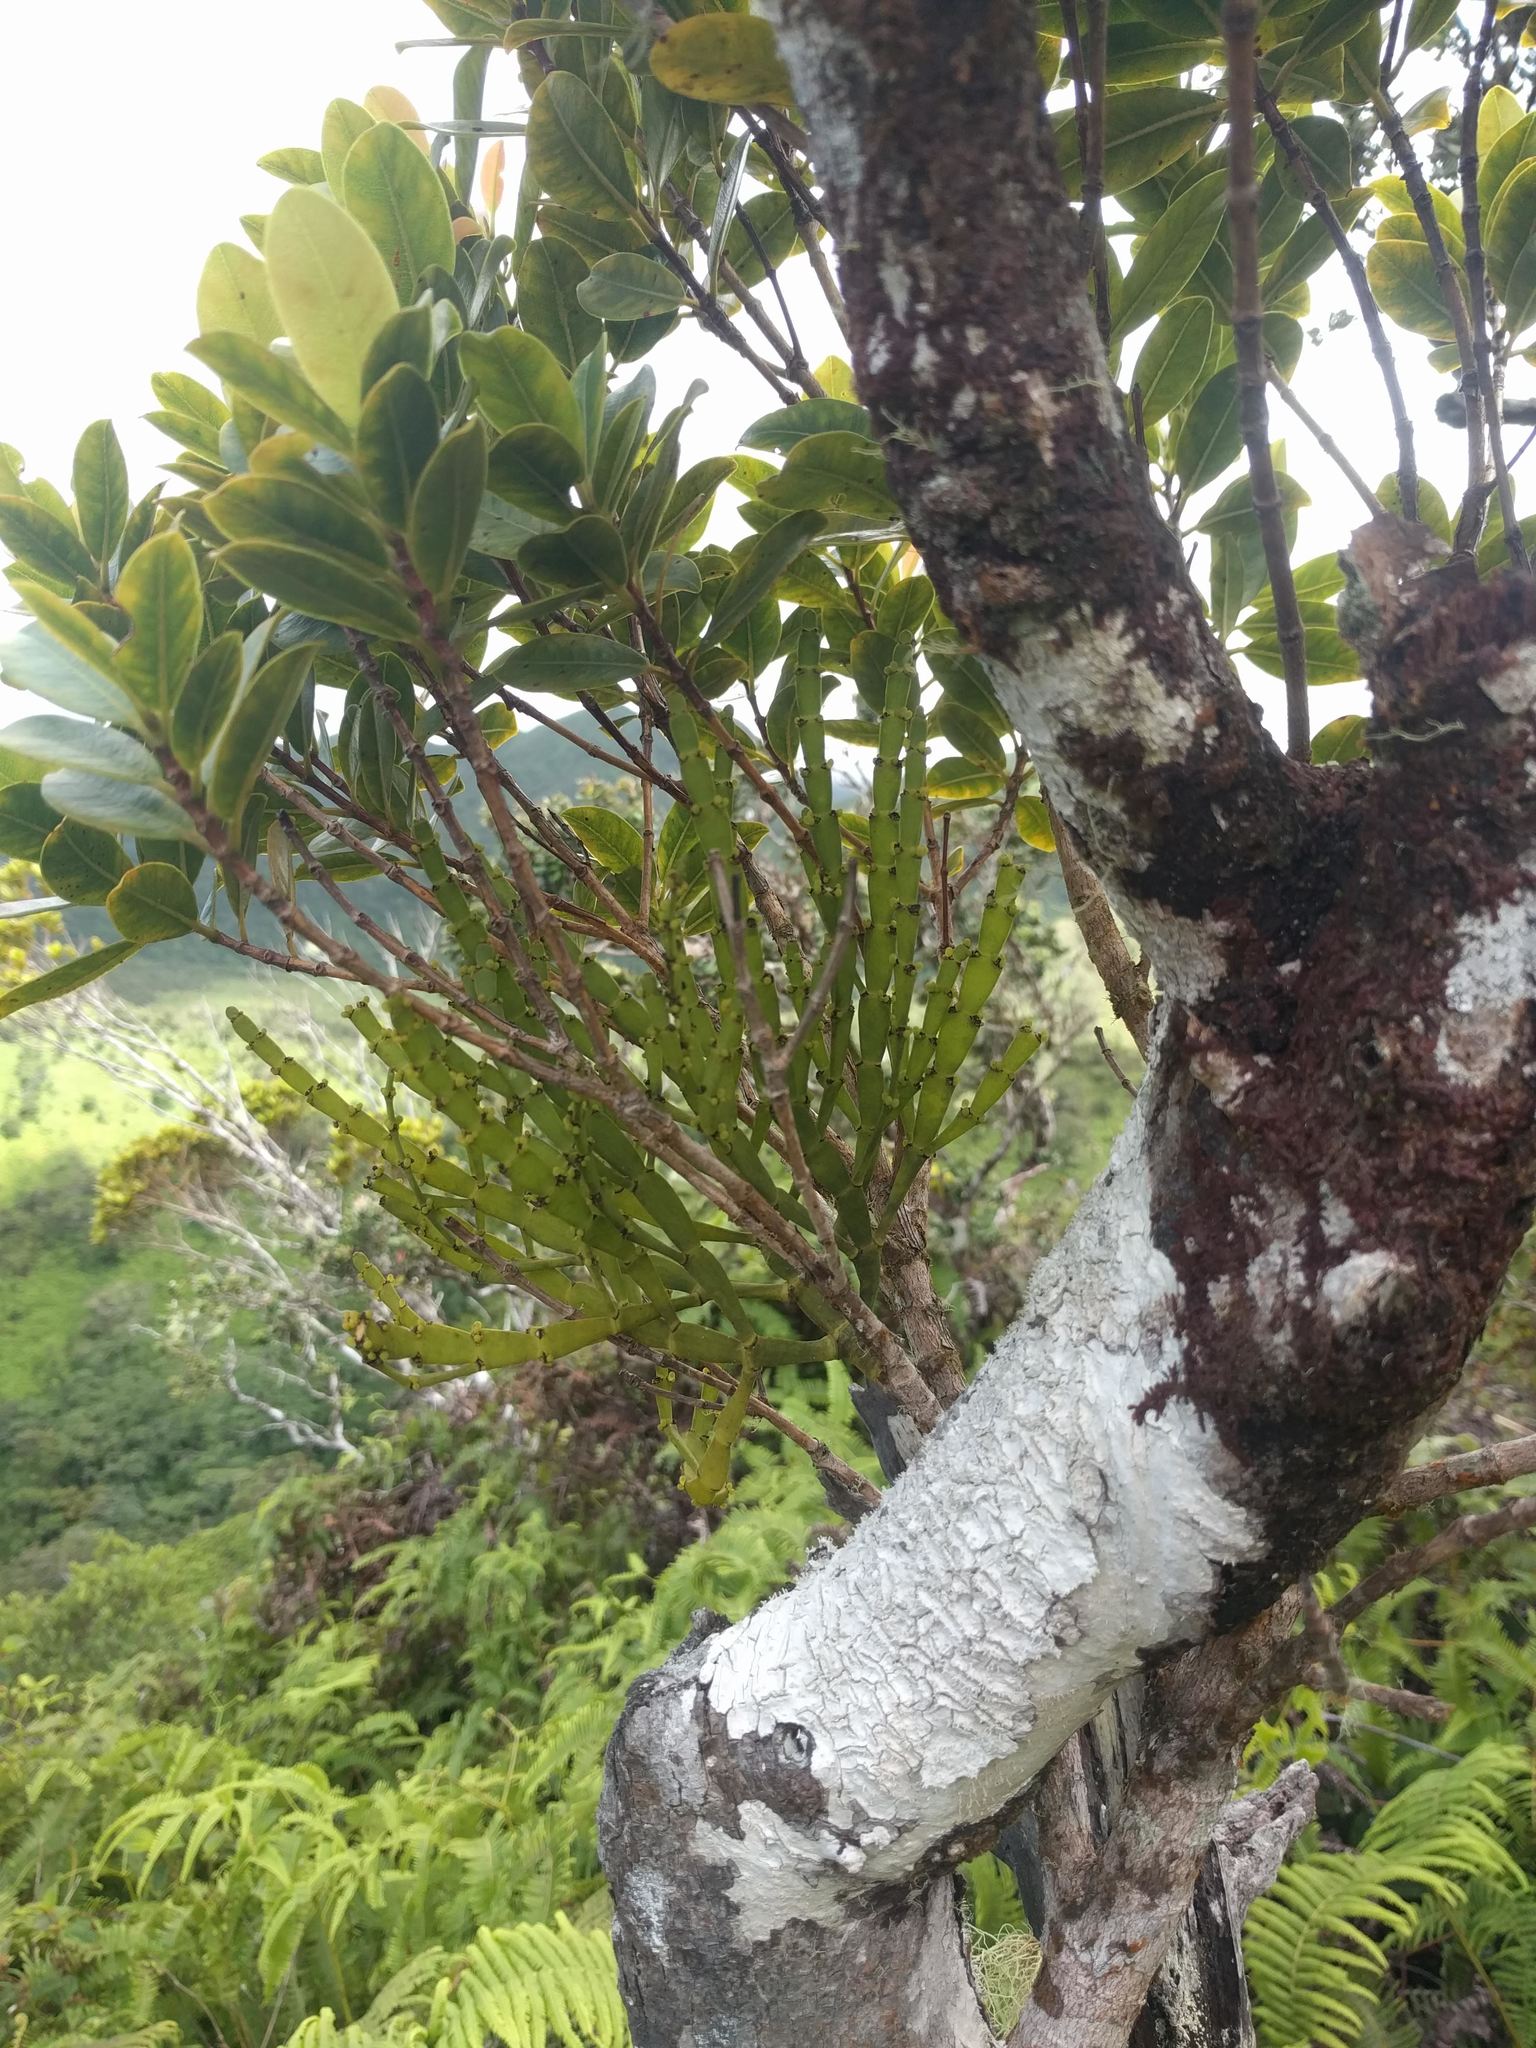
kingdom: Plantae
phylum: Tracheophyta
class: Magnoliopsida
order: Santalales
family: Viscaceae
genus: Korthalsella
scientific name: Korthalsella complanata
